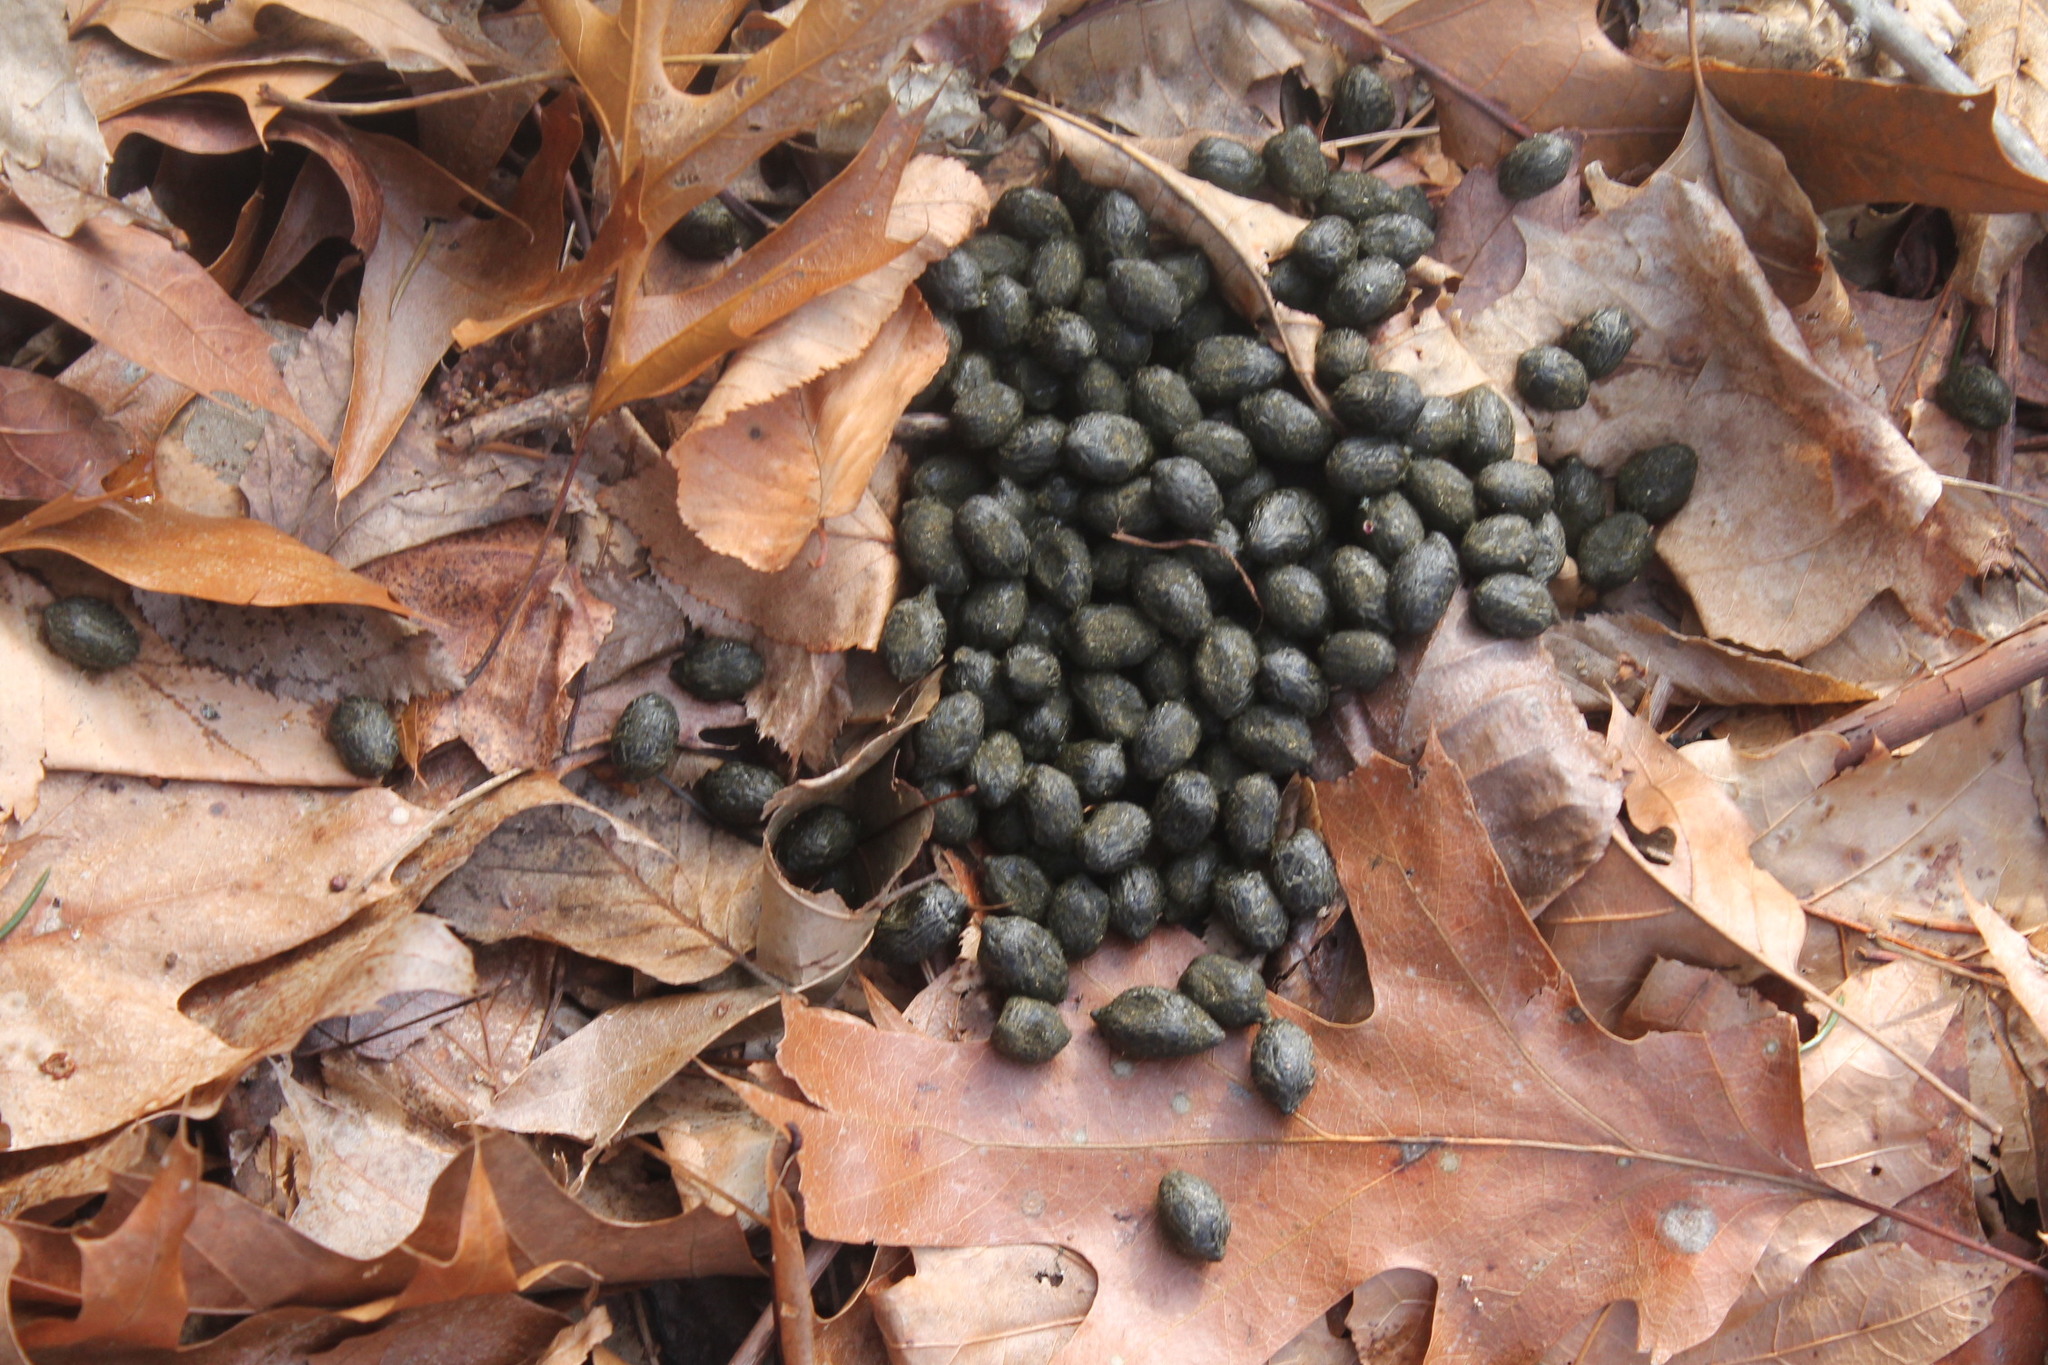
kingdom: Animalia
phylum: Chordata
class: Mammalia
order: Artiodactyla
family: Cervidae
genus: Odocoileus
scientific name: Odocoileus virginianus
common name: White-tailed deer
